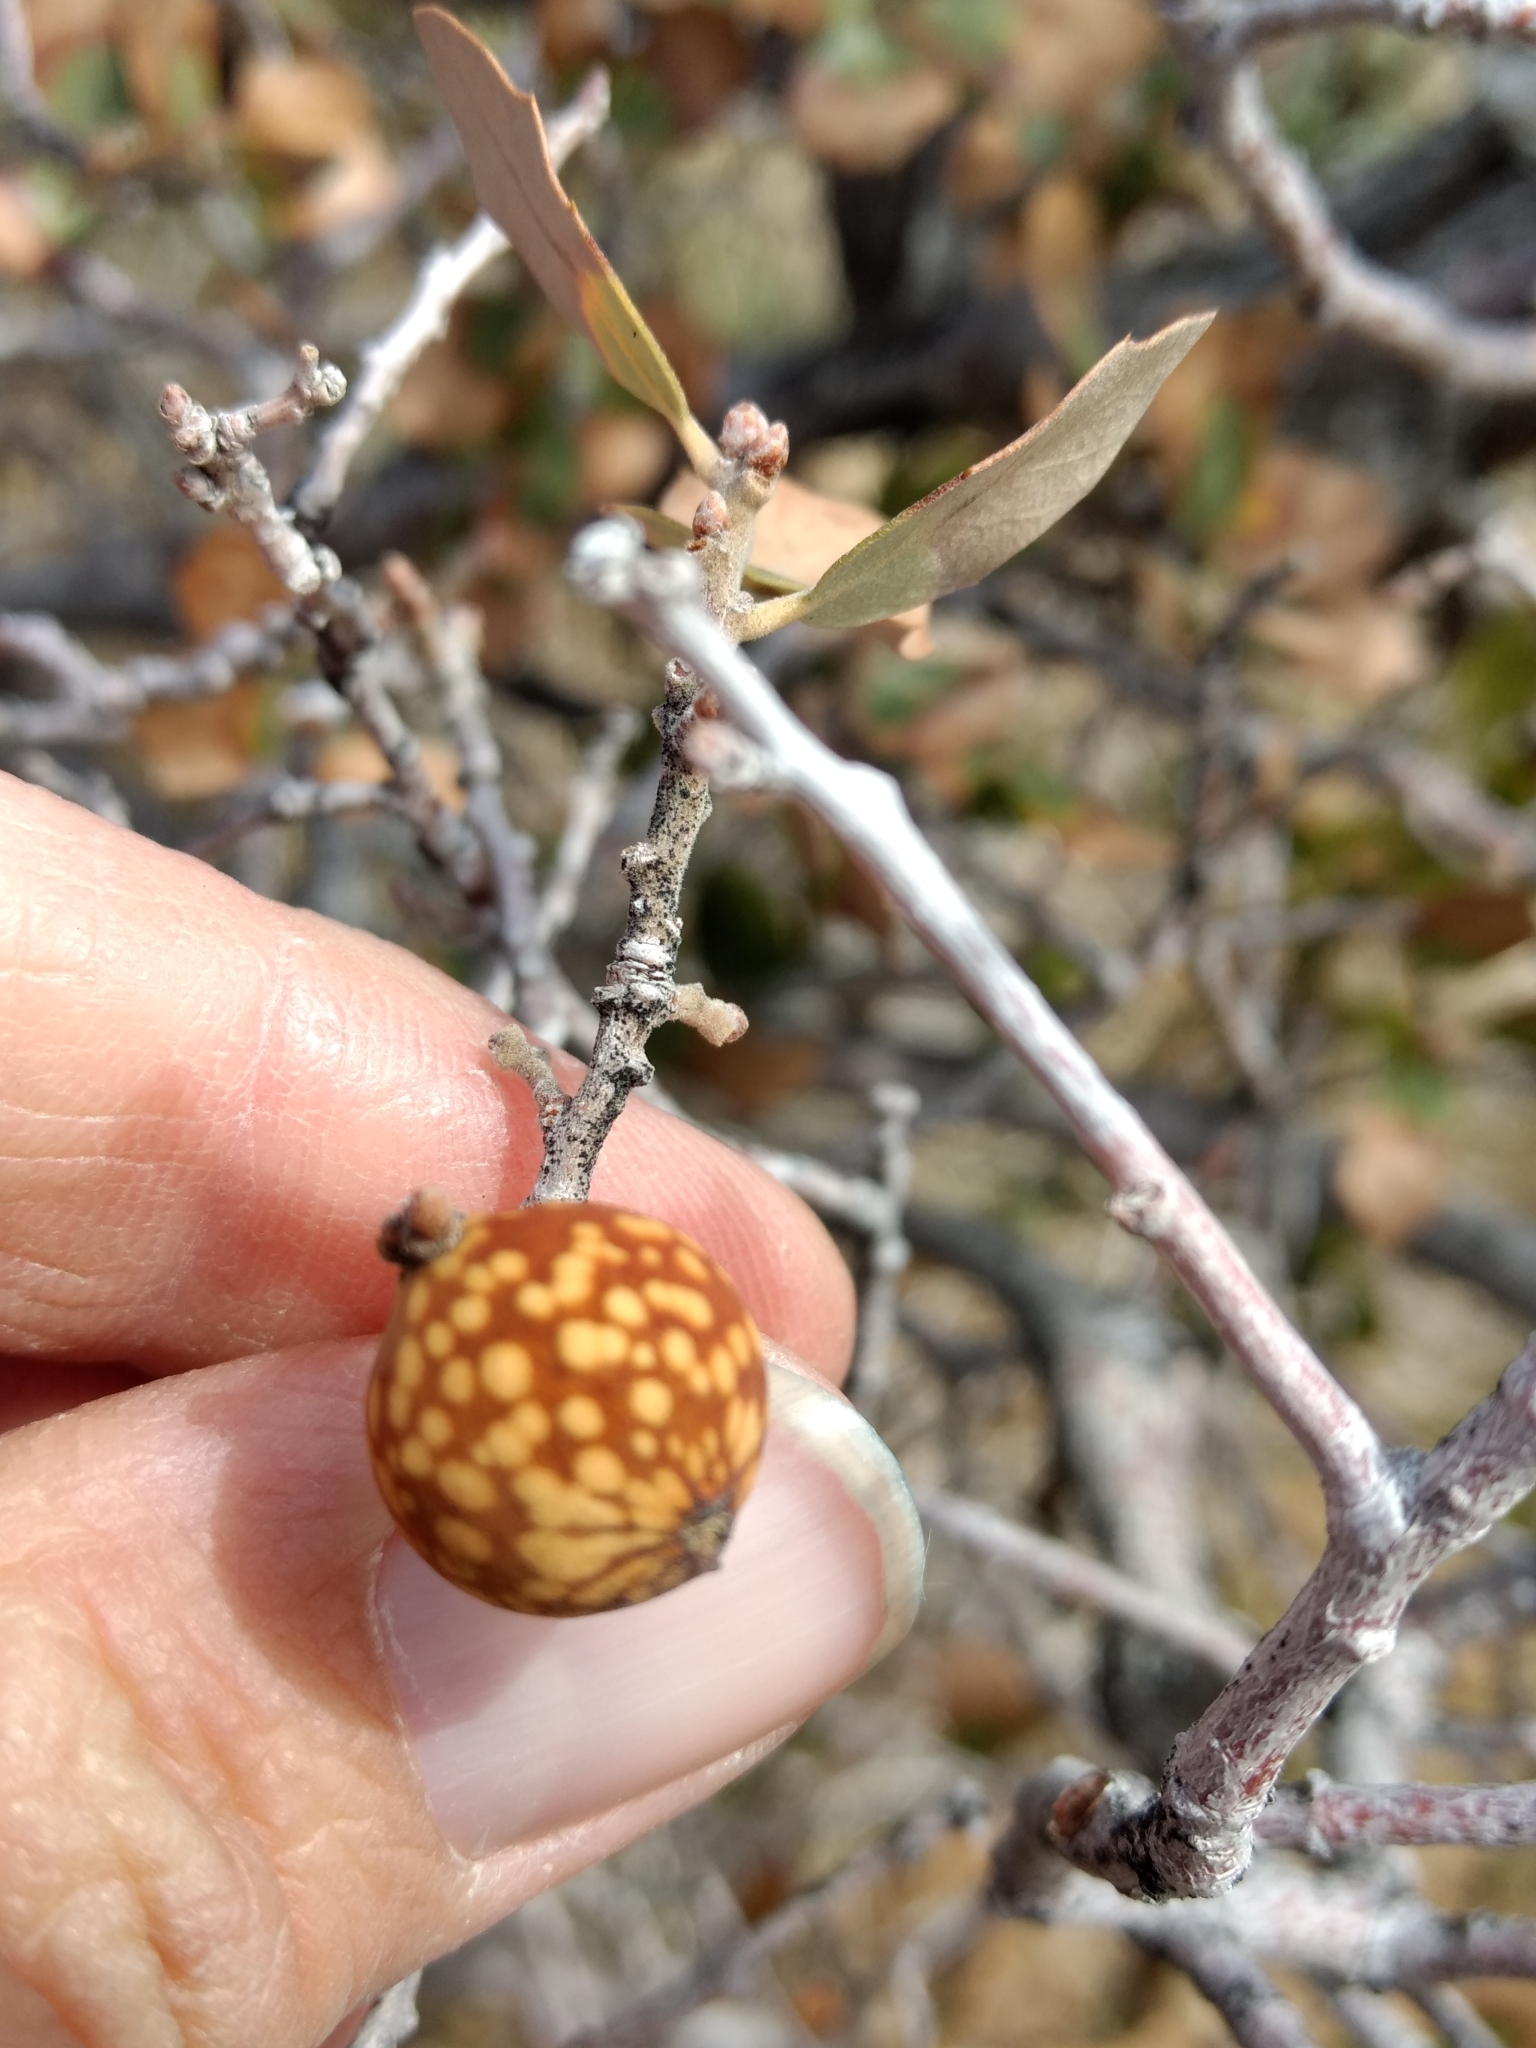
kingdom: Animalia
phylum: Arthropoda
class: Insecta
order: Hymenoptera
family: Cynipidae
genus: Burnettweldia
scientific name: Burnettweldia
